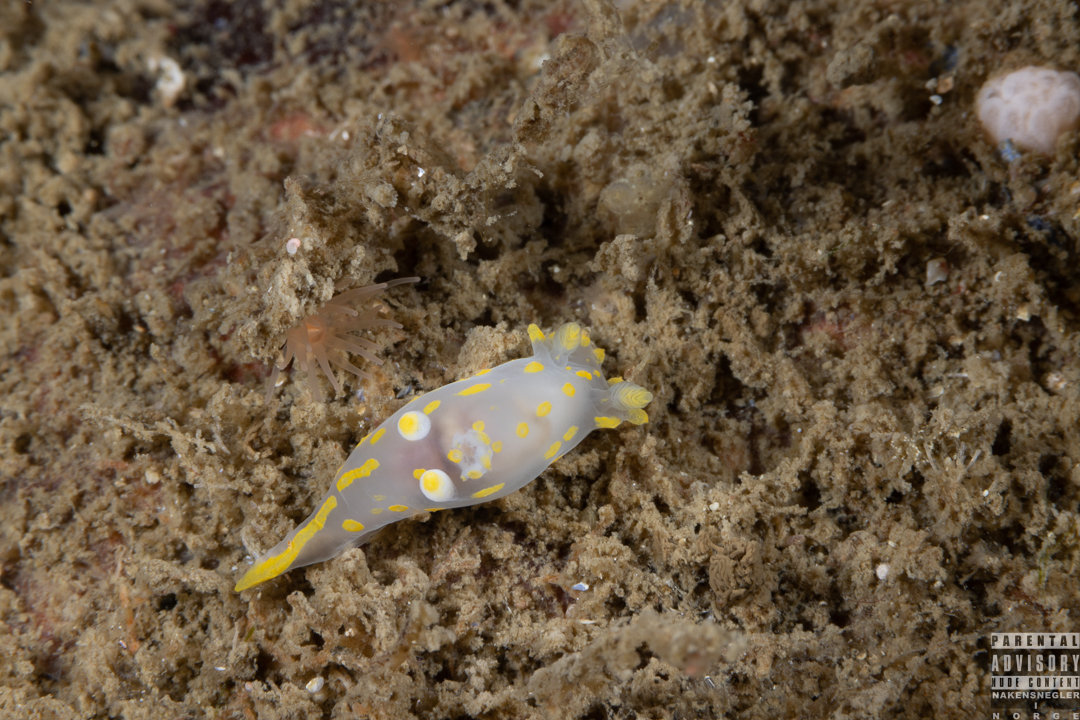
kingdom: Animalia
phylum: Mollusca
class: Gastropoda
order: Nudibranchia
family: Polyceridae
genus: Polycera
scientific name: Polycera quadrilineata
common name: Four-striped polycera
